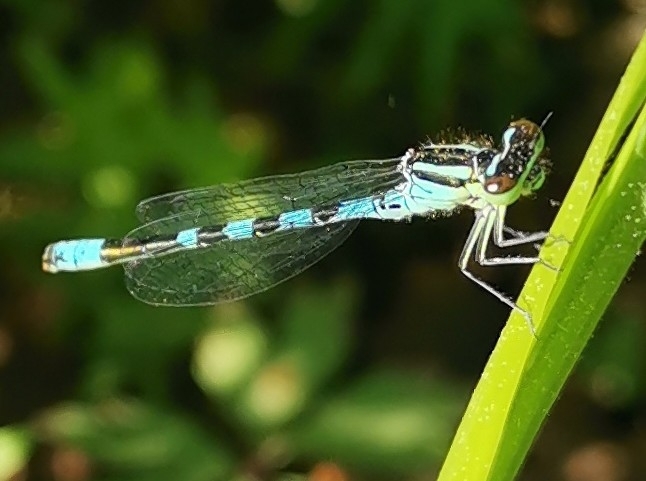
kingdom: Animalia
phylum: Arthropoda
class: Insecta
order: Odonata
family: Coenagrionidae
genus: Coenagrion
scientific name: Coenagrion hastulatum
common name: Spearhead bluet
